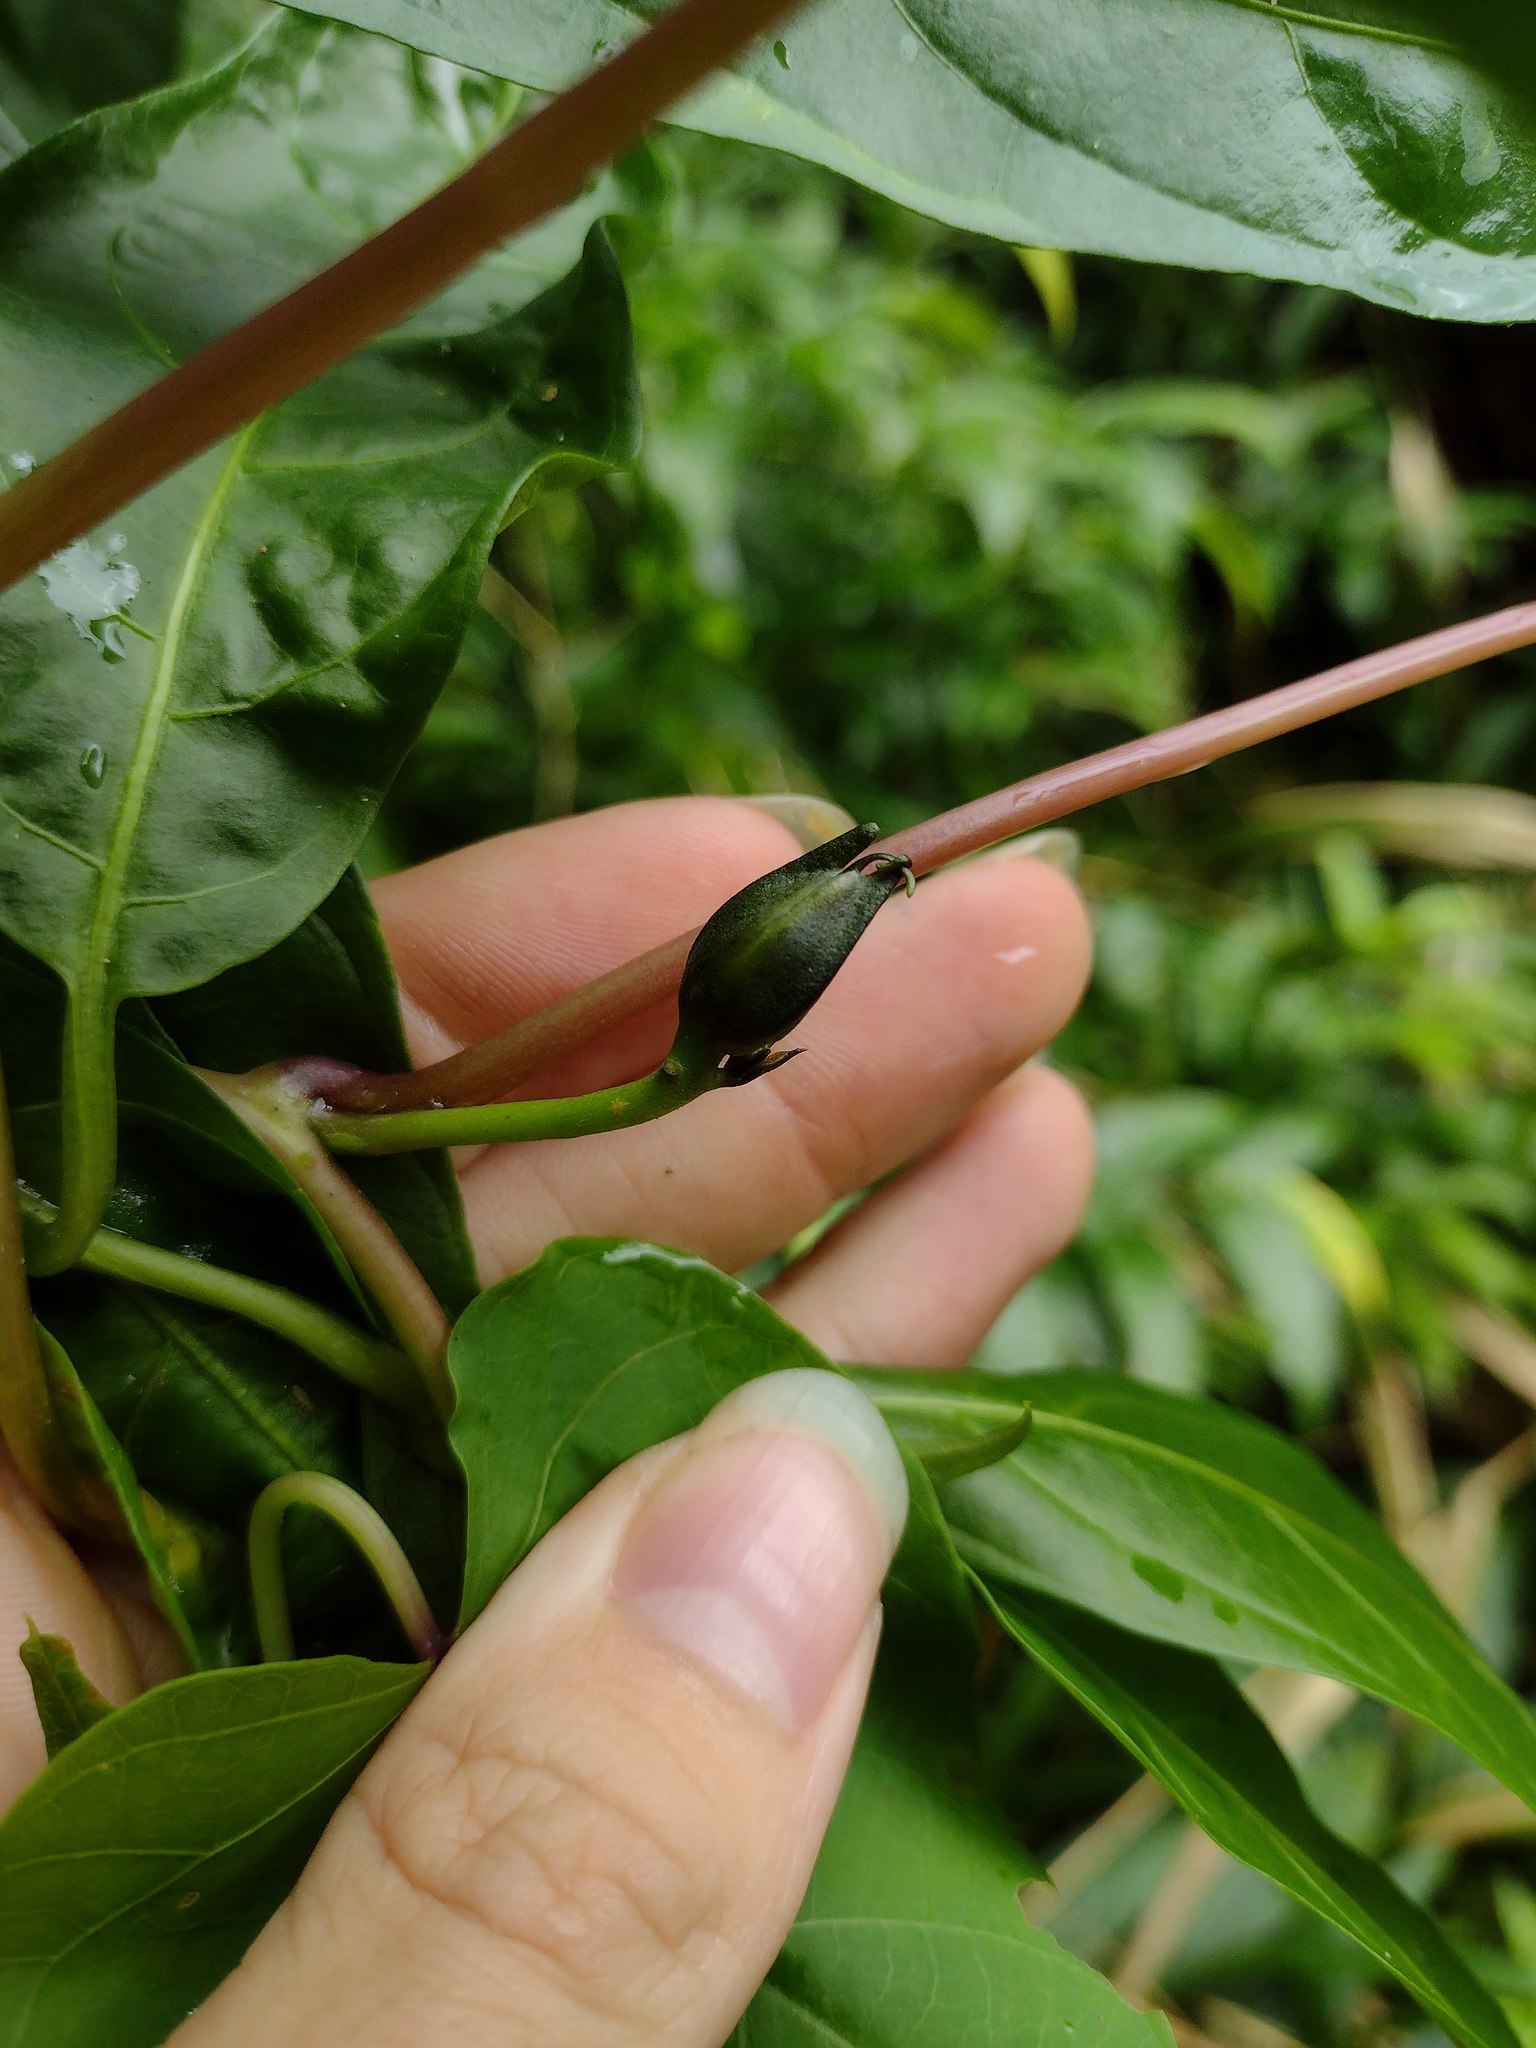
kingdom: Plantae
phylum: Tracheophyta
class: Magnoliopsida
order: Solanales
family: Convolvulaceae
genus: Ipomoea
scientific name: Ipomoea alba
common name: Moonflower
